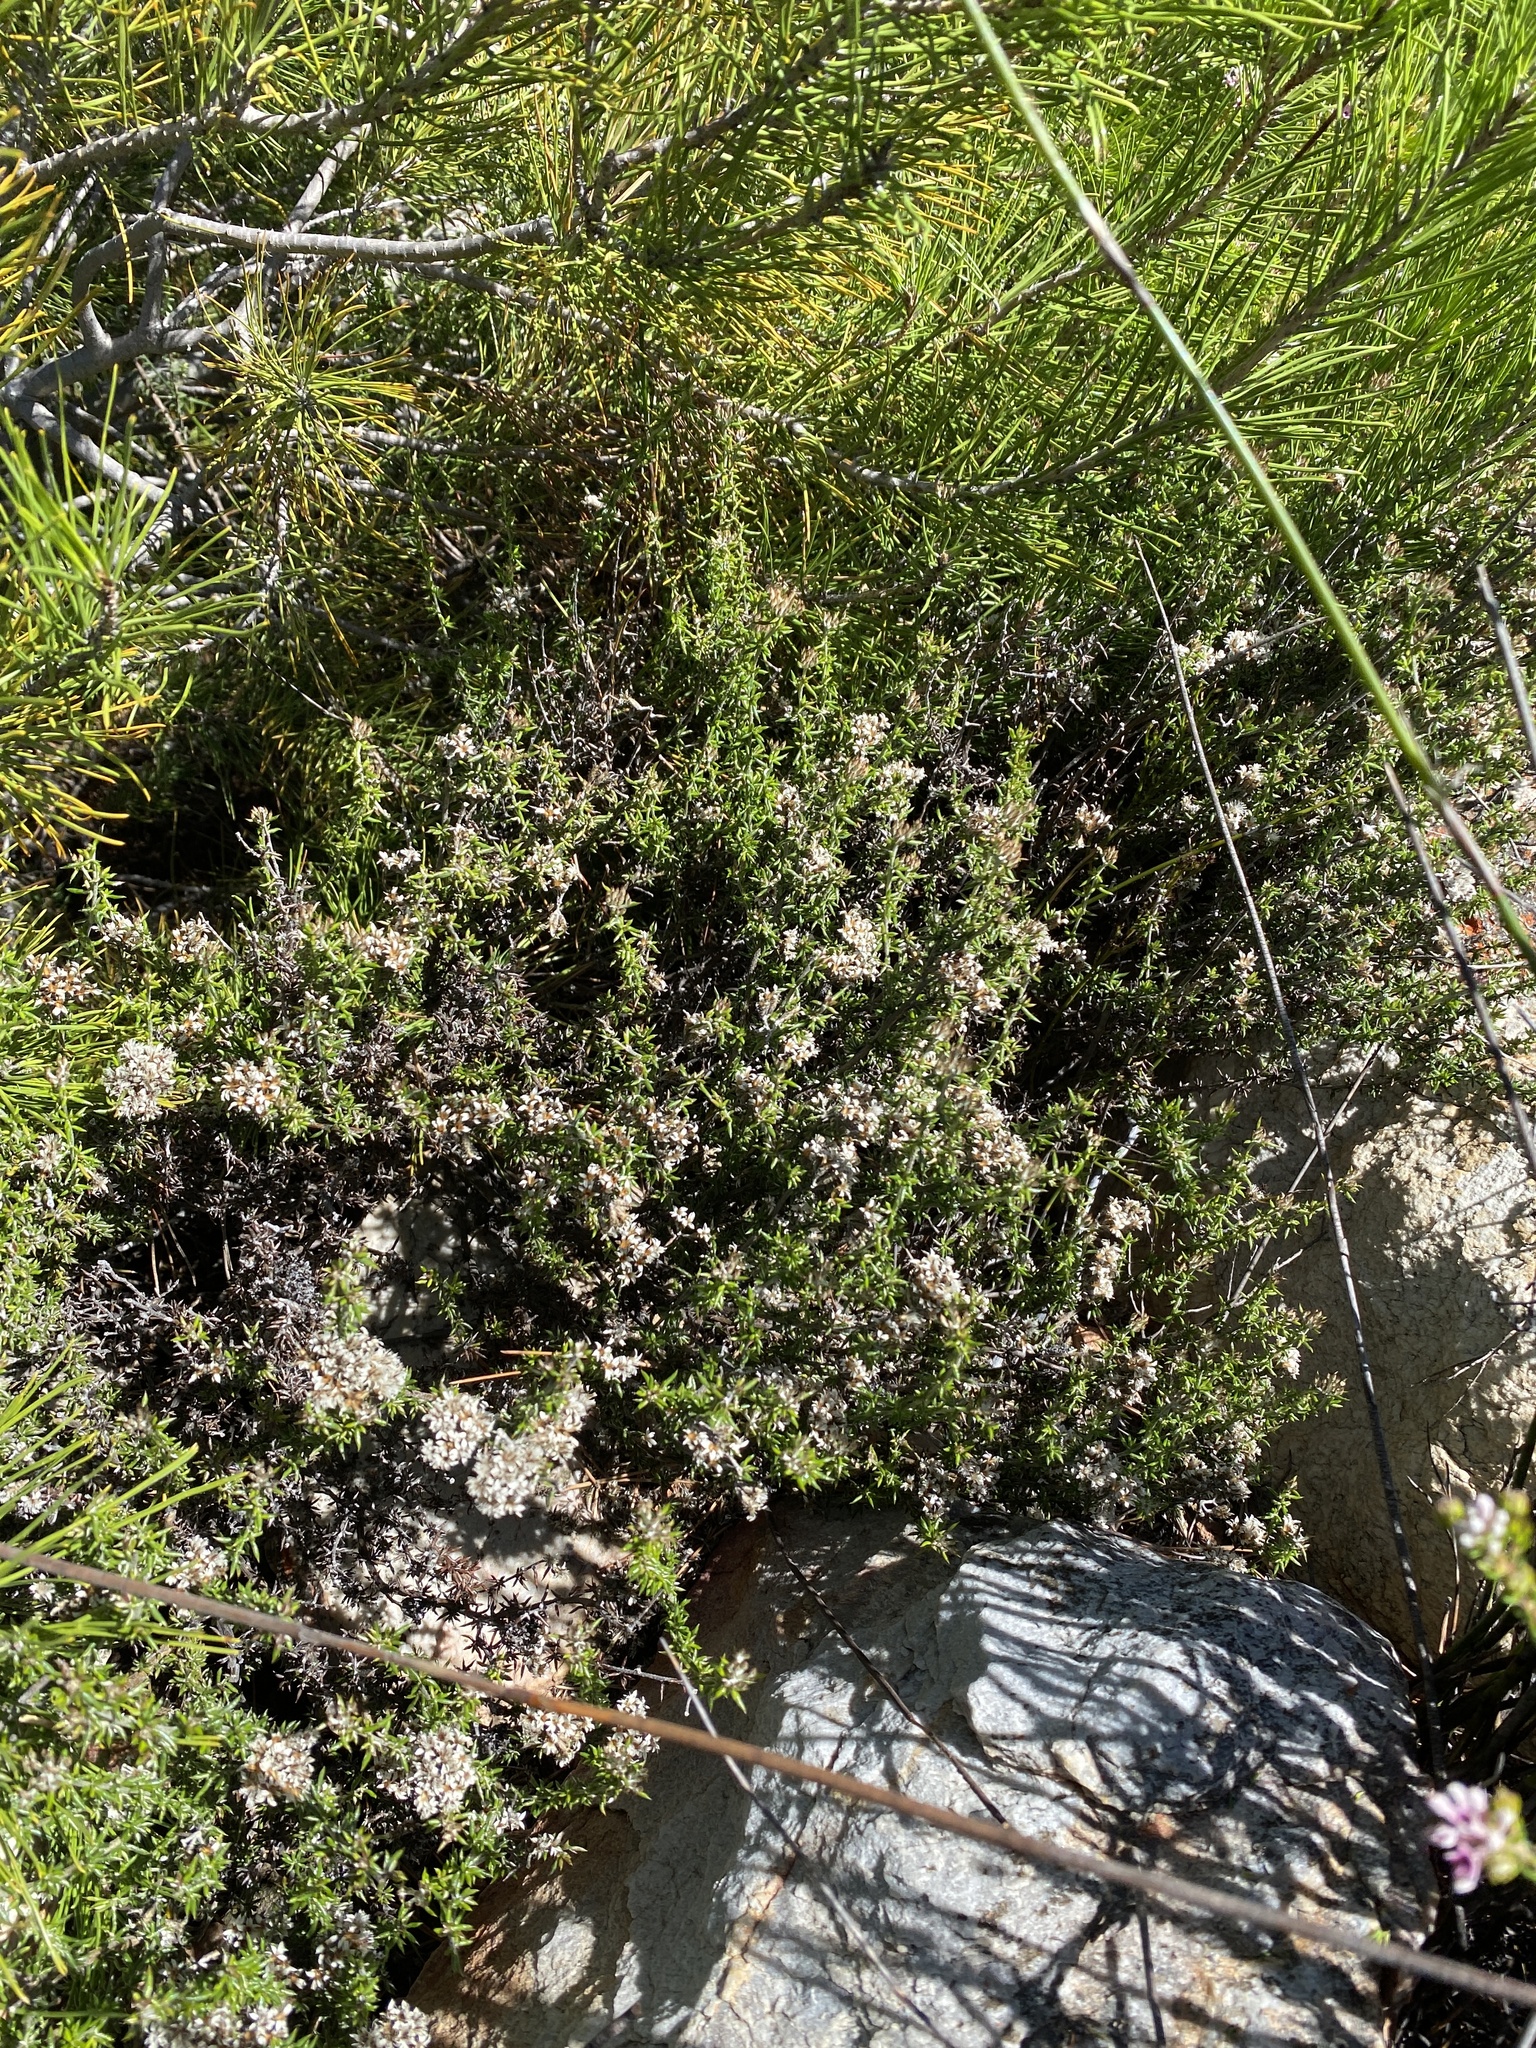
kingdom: Plantae
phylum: Tracheophyta
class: Magnoliopsida
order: Asterales
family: Asteraceae
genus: Metalasia
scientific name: Metalasia massonii
